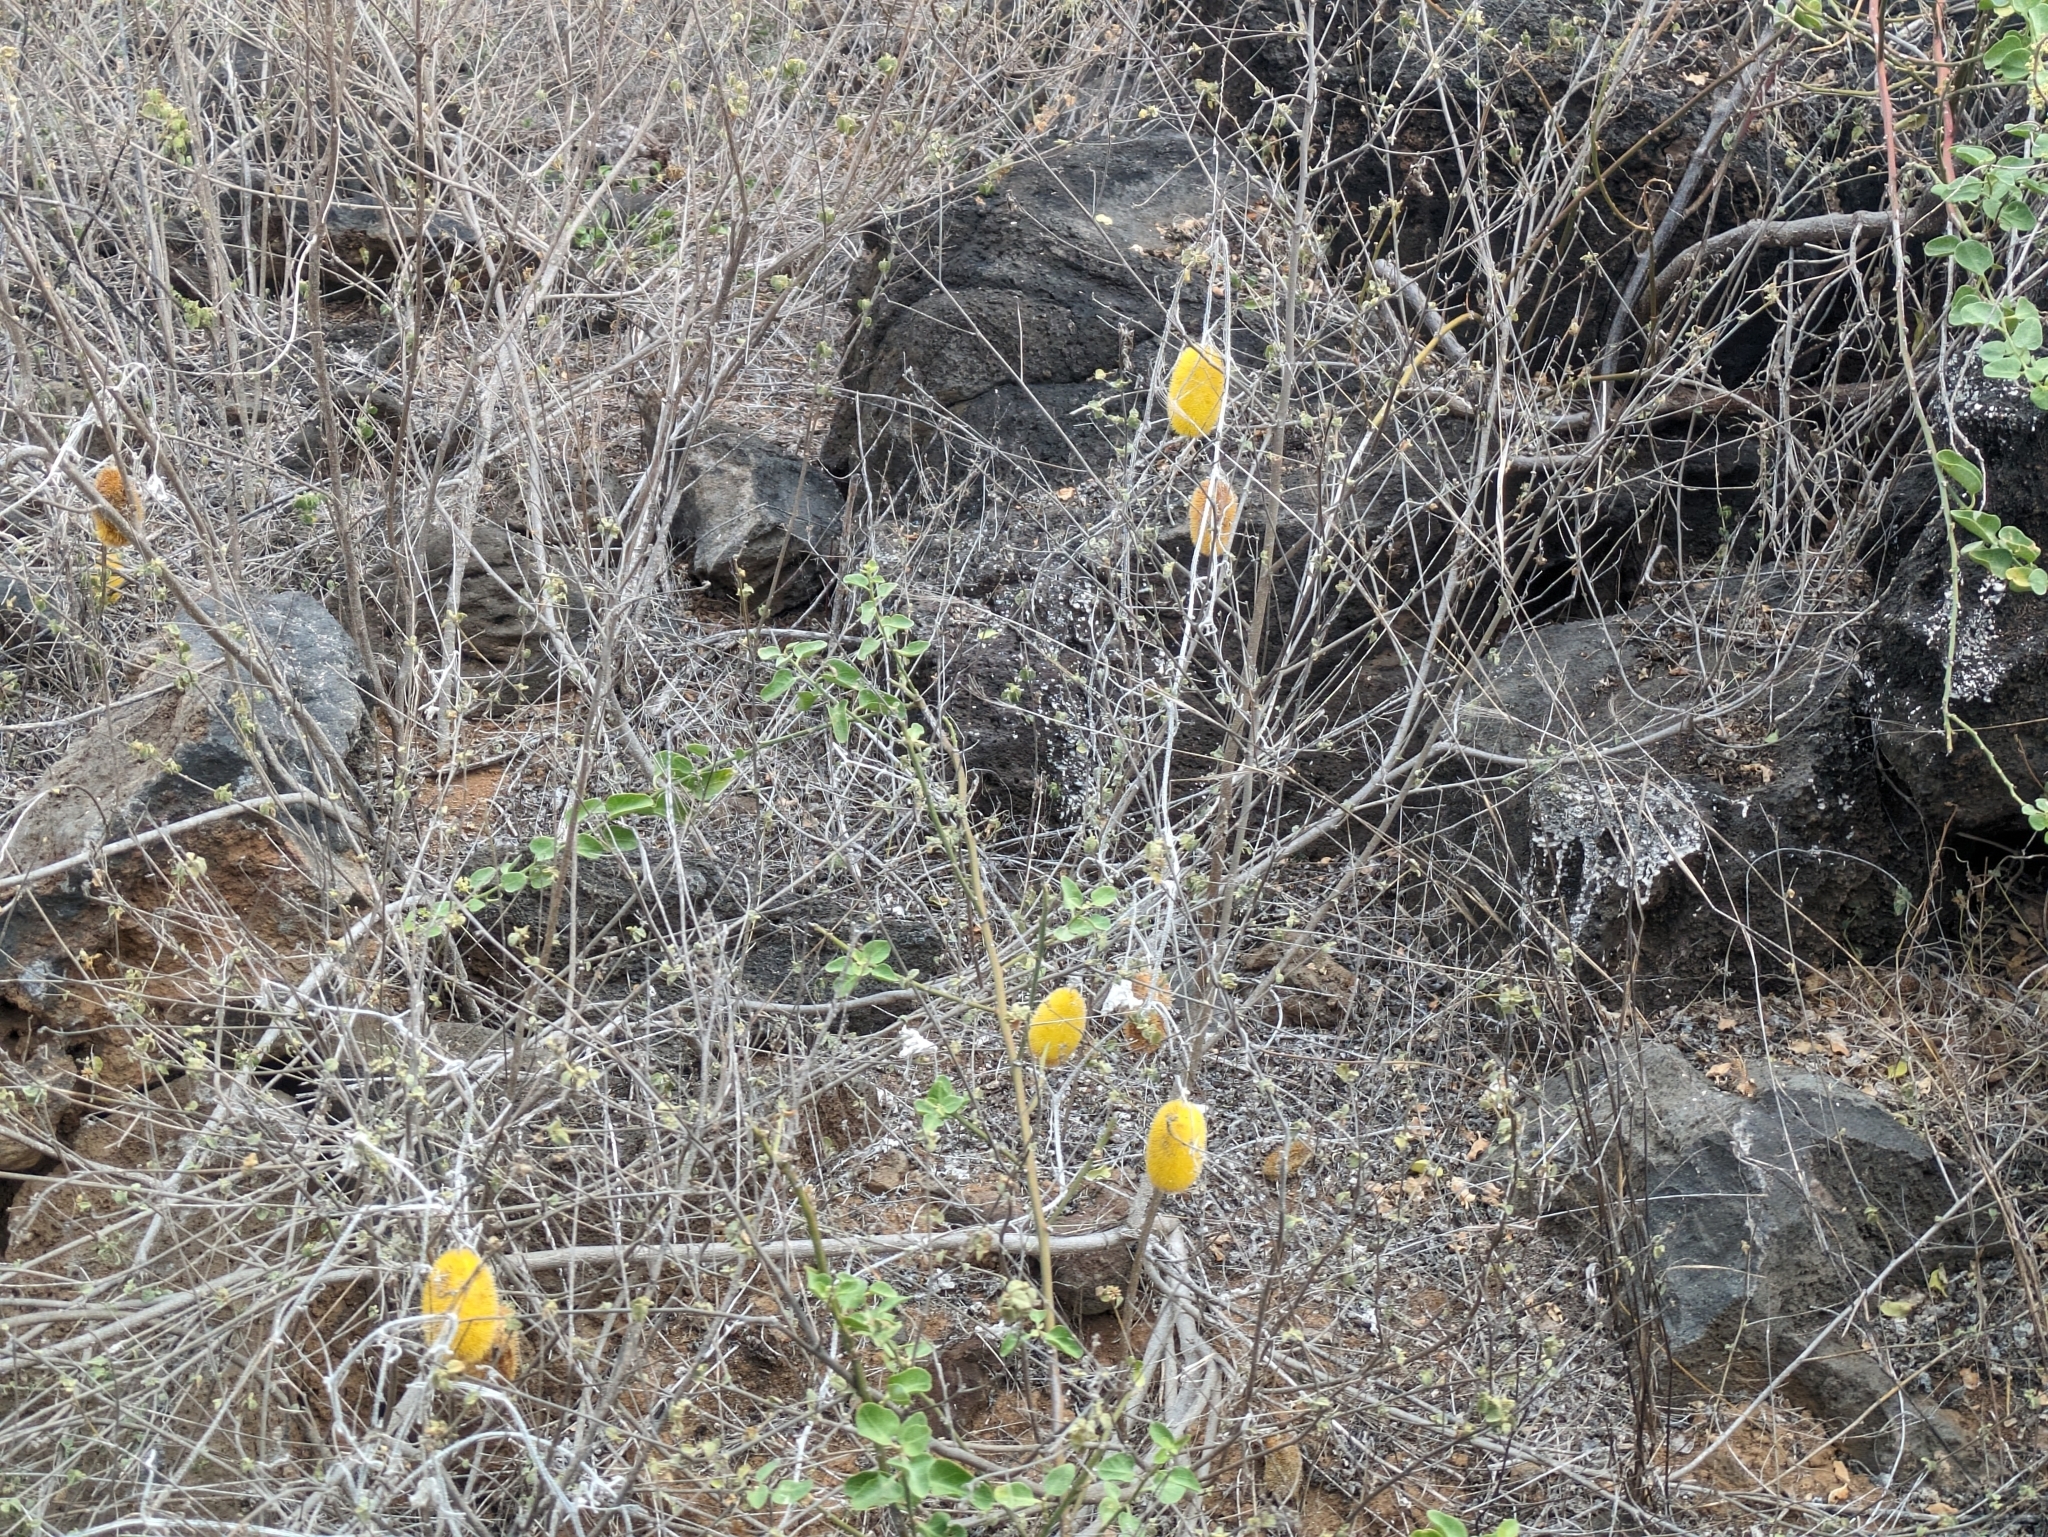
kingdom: Plantae
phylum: Tracheophyta
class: Magnoliopsida
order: Cucurbitales
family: Cucurbitaceae
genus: Cucumis
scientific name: Cucumis dipsaceus
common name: Hedgehog gourd
